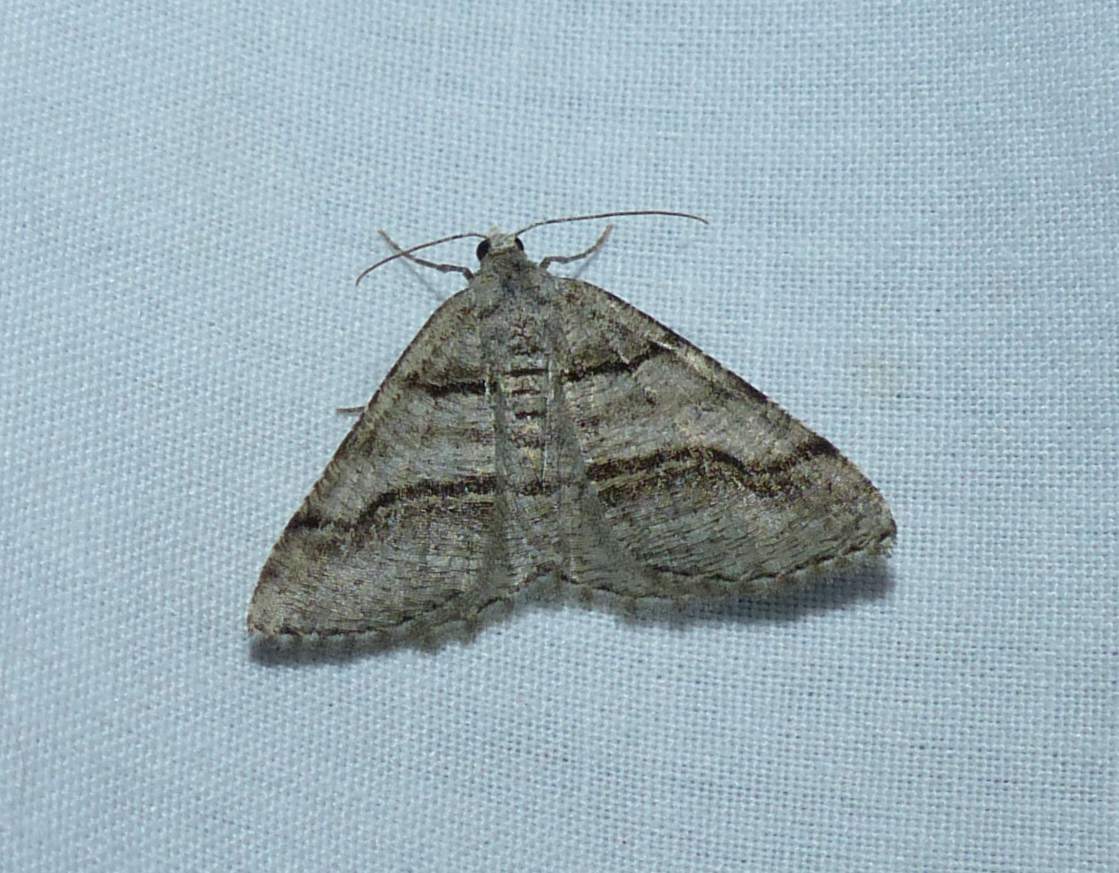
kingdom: Animalia
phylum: Arthropoda
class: Insecta
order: Lepidoptera
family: Geometridae
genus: Digrammia
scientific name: Digrammia continuata
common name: Curve-lined angle
